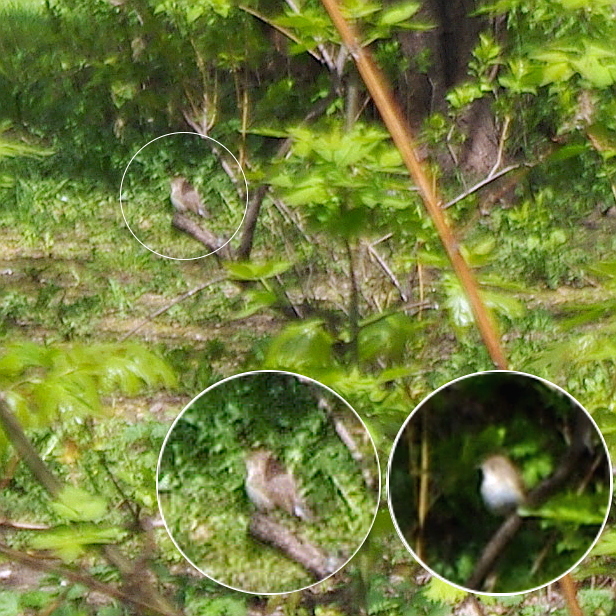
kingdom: Animalia
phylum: Chordata
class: Aves
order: Passeriformes
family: Muscicapidae
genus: Ficedula
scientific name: Ficedula parva
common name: Red-breasted flycatcher
